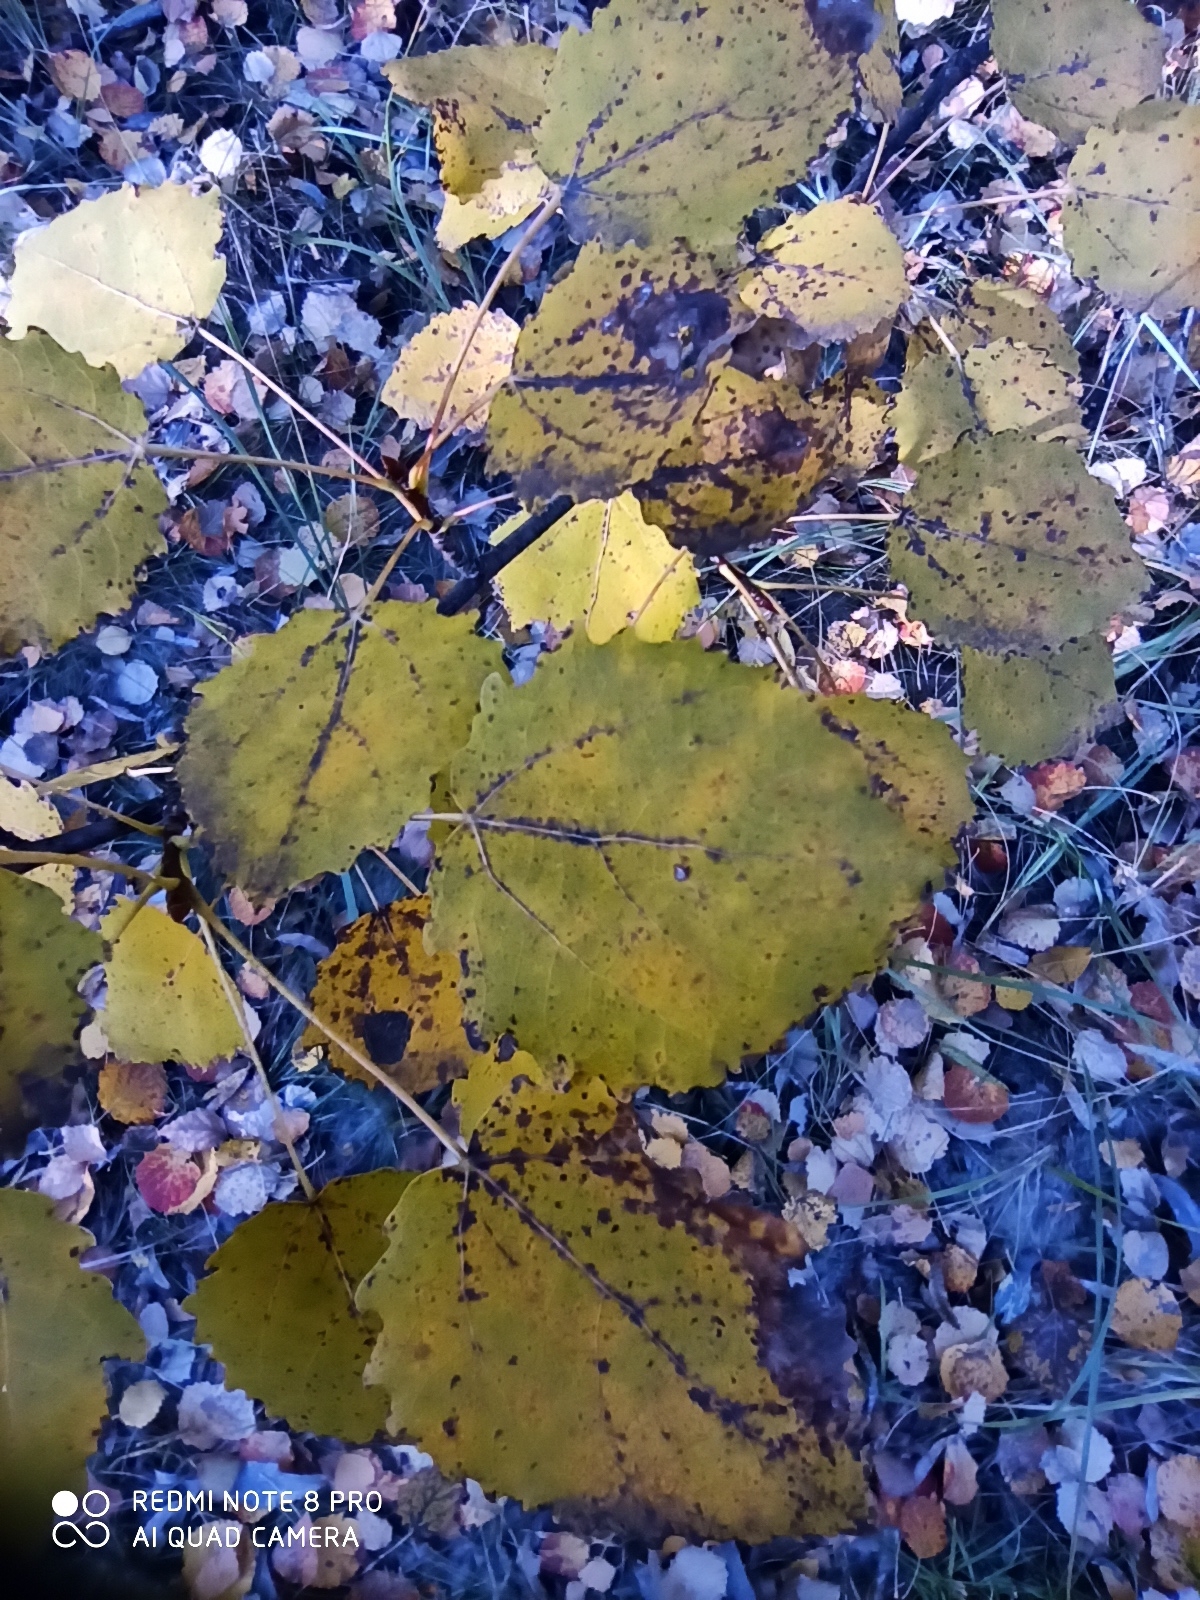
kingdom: Plantae
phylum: Tracheophyta
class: Magnoliopsida
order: Malpighiales
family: Salicaceae
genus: Populus
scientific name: Populus tremula
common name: European aspen
